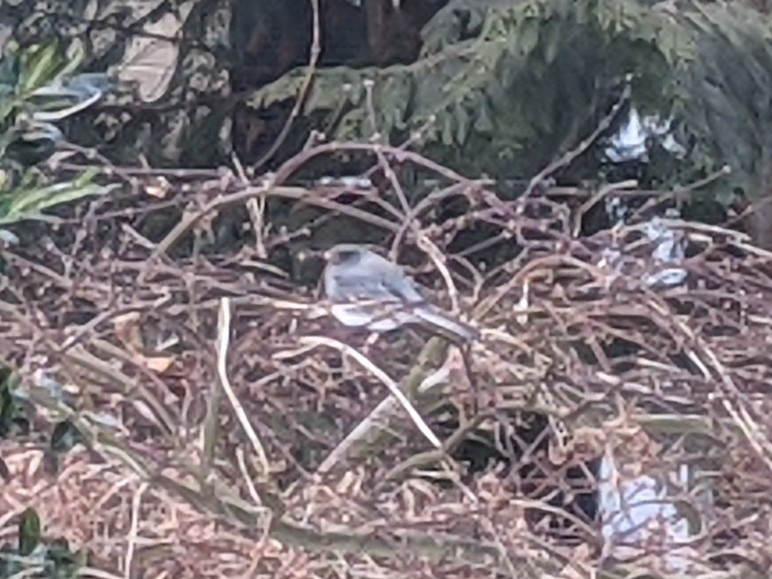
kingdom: Animalia
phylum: Chordata
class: Aves
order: Passeriformes
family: Passerellidae
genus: Junco
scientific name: Junco hyemalis
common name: Dark-eyed junco
